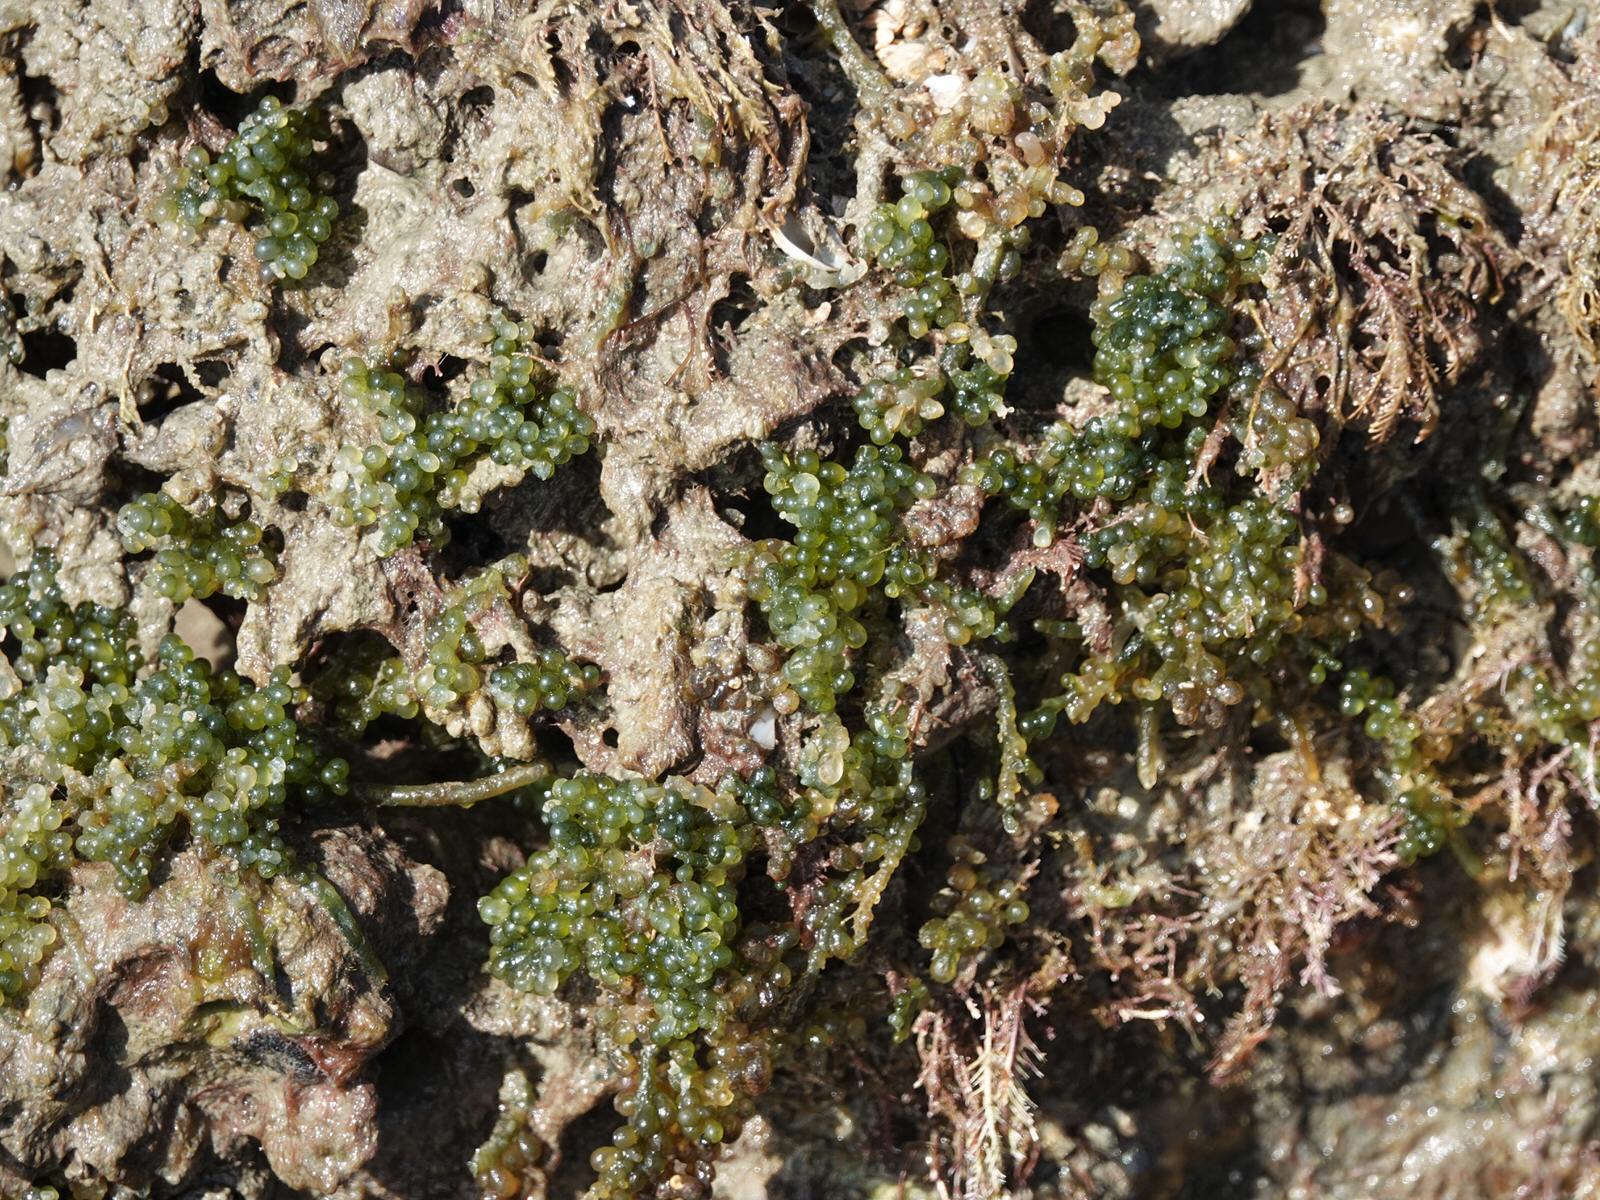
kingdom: Plantae
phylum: Chlorophyta
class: Ulvophyceae
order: Bryopsidales
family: Caulerpaceae
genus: Caulerpa
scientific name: Caulerpa geminata
